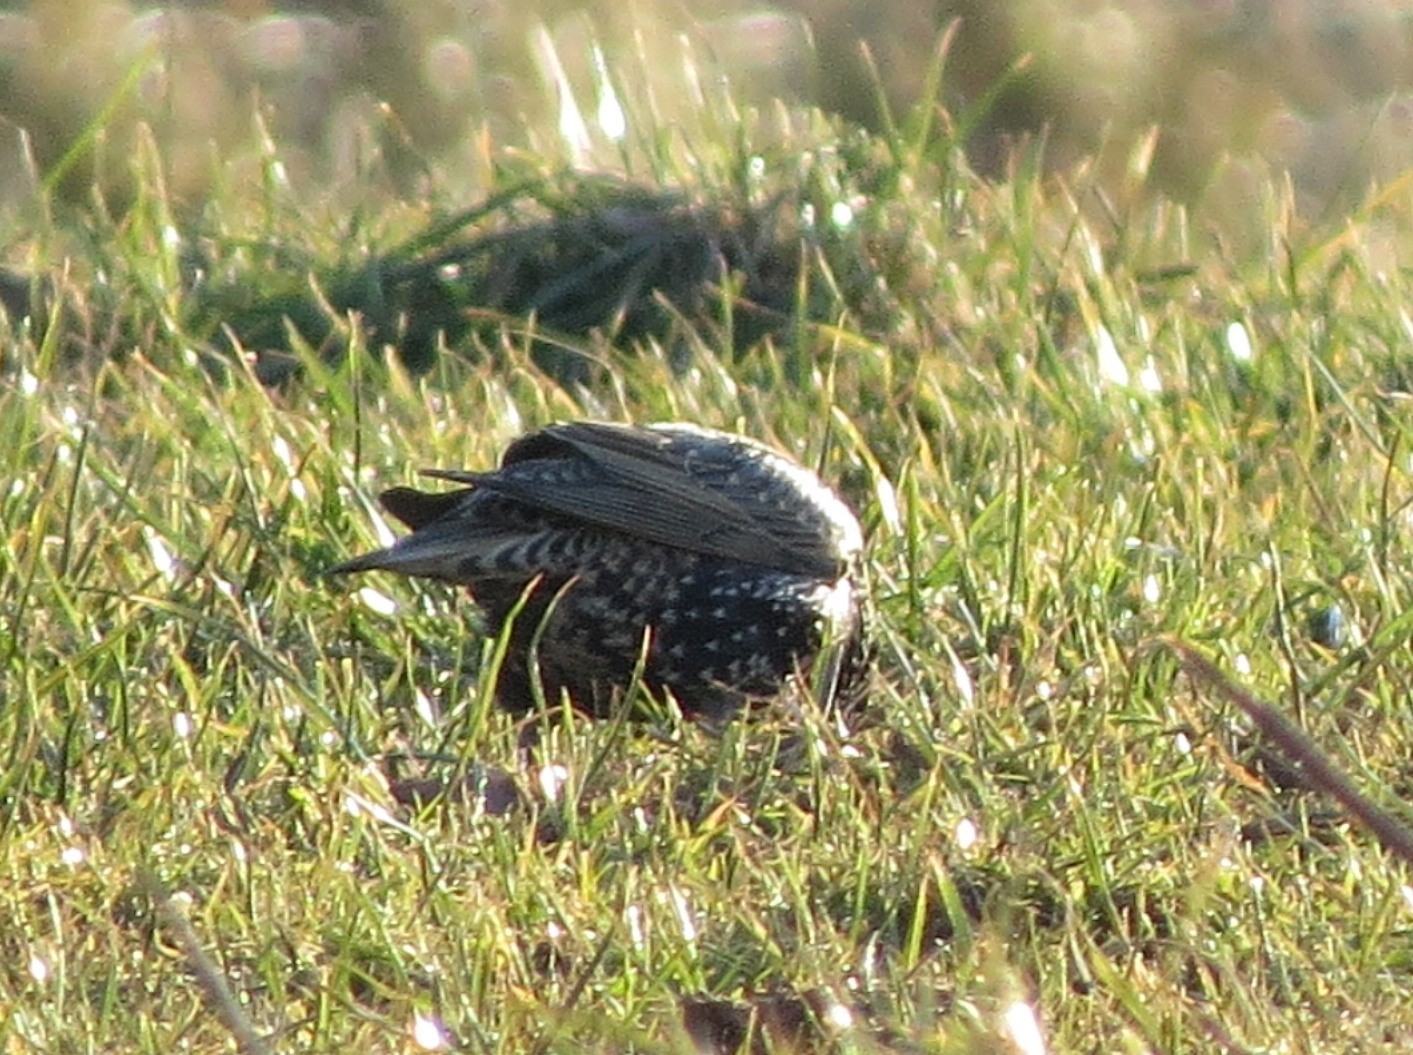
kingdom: Animalia
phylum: Chordata
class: Aves
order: Passeriformes
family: Sturnidae
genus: Sturnus
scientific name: Sturnus vulgaris
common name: Common starling
